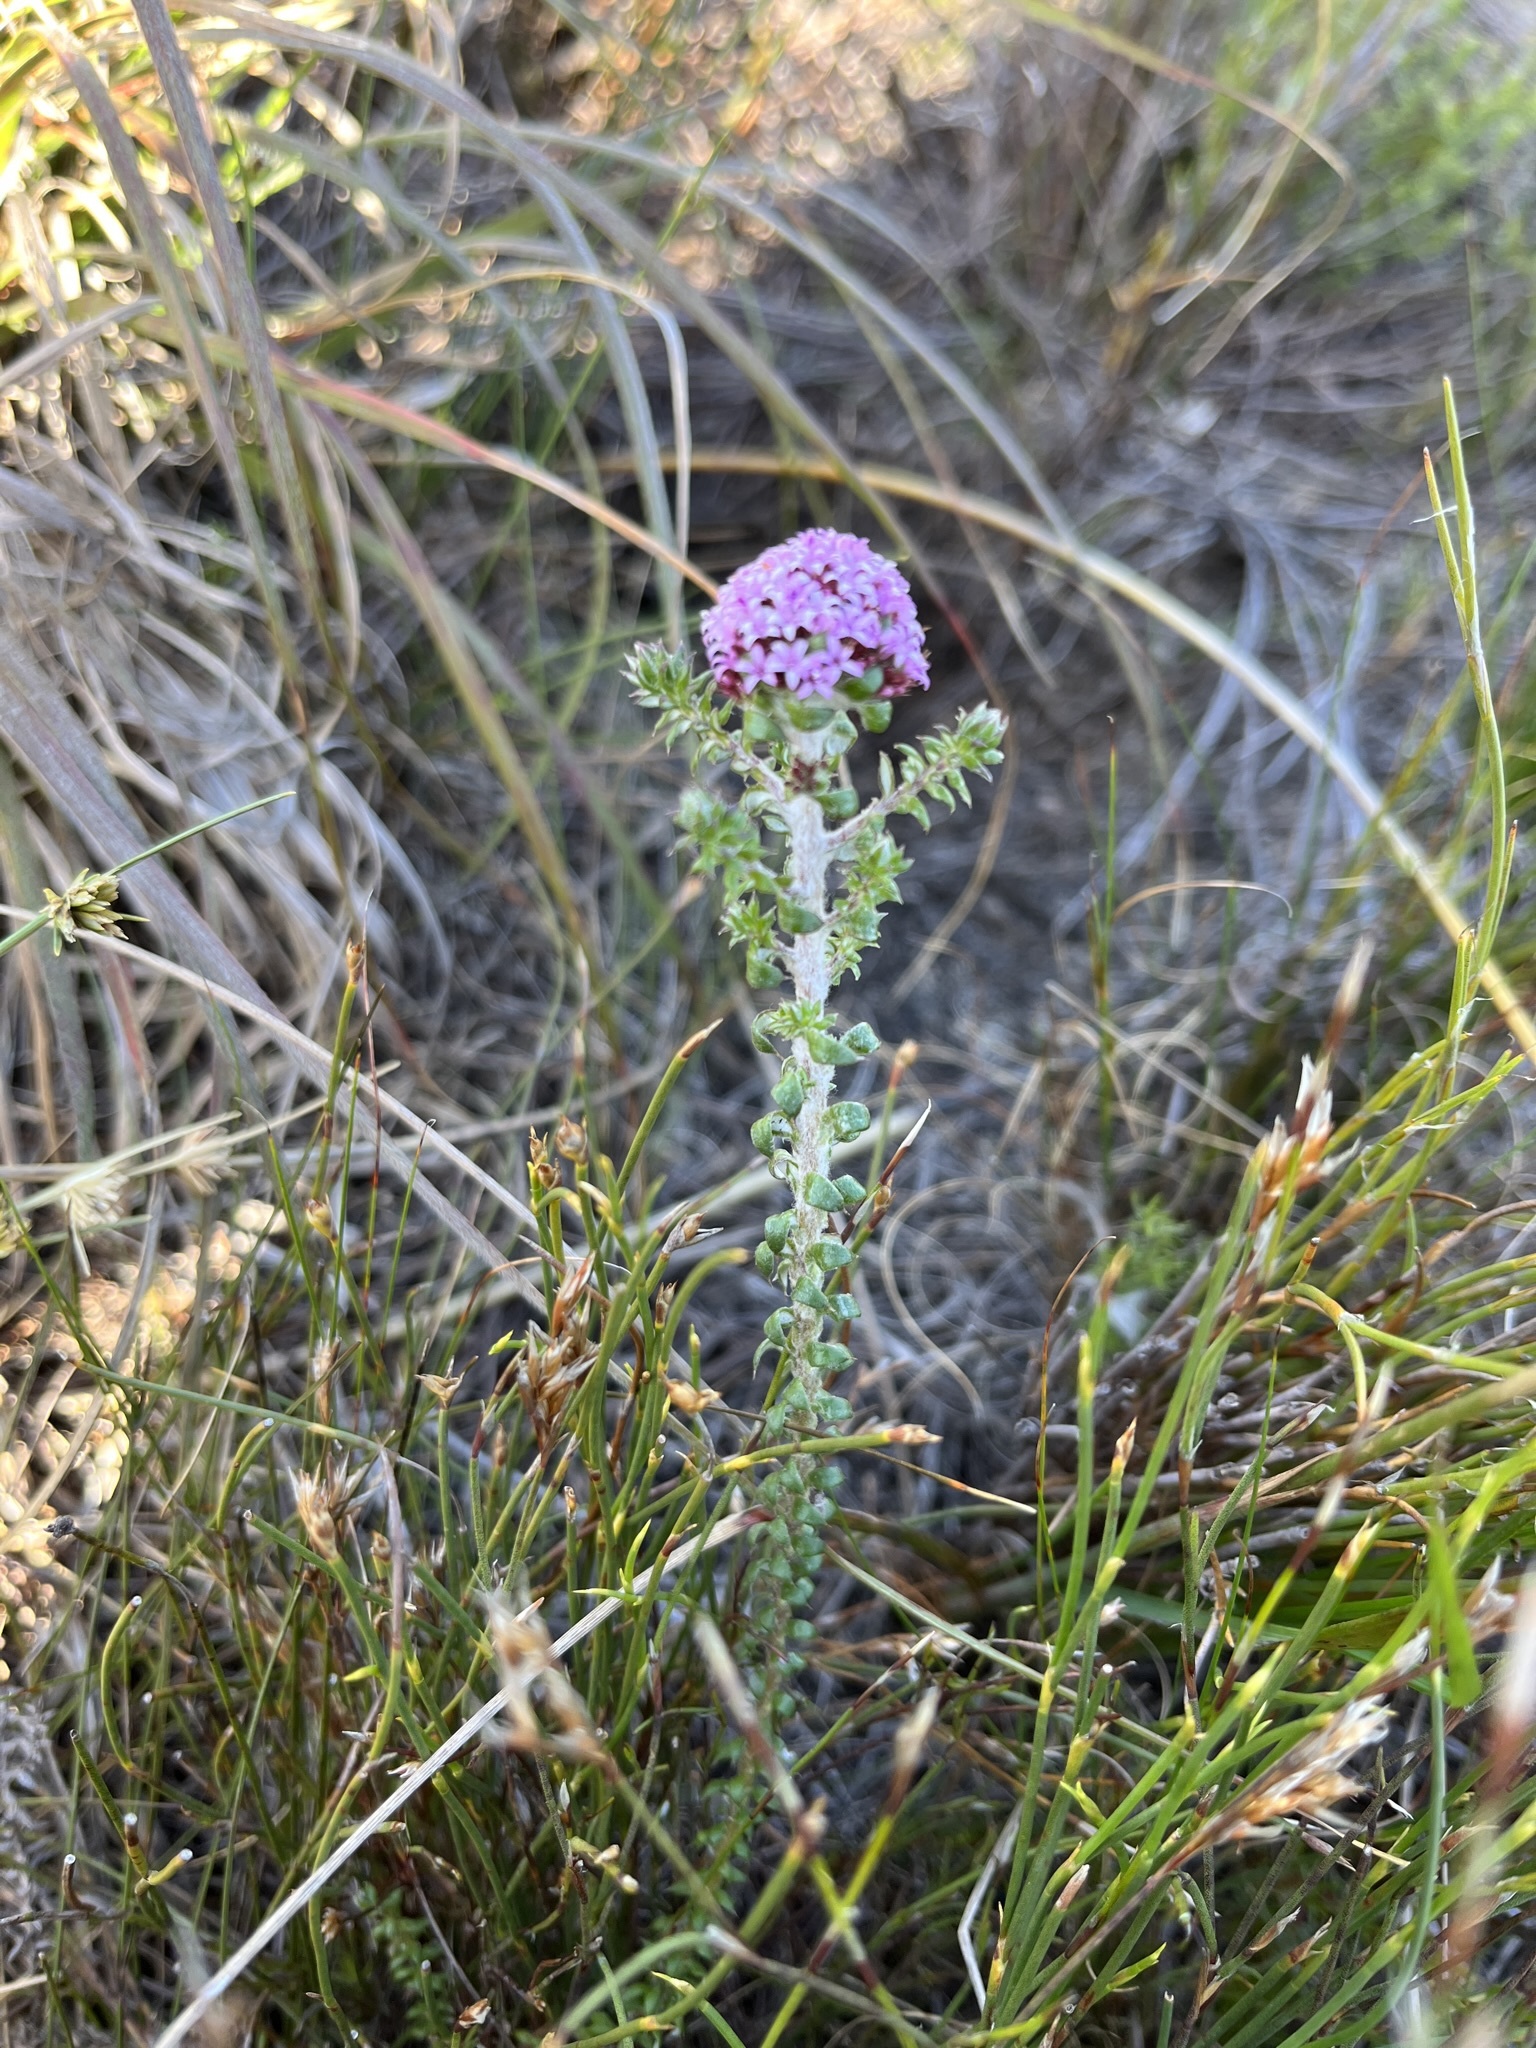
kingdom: Plantae
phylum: Tracheophyta
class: Magnoliopsida
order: Asterales
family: Asteraceae
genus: Stoebe
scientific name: Stoebe cyathuloides
